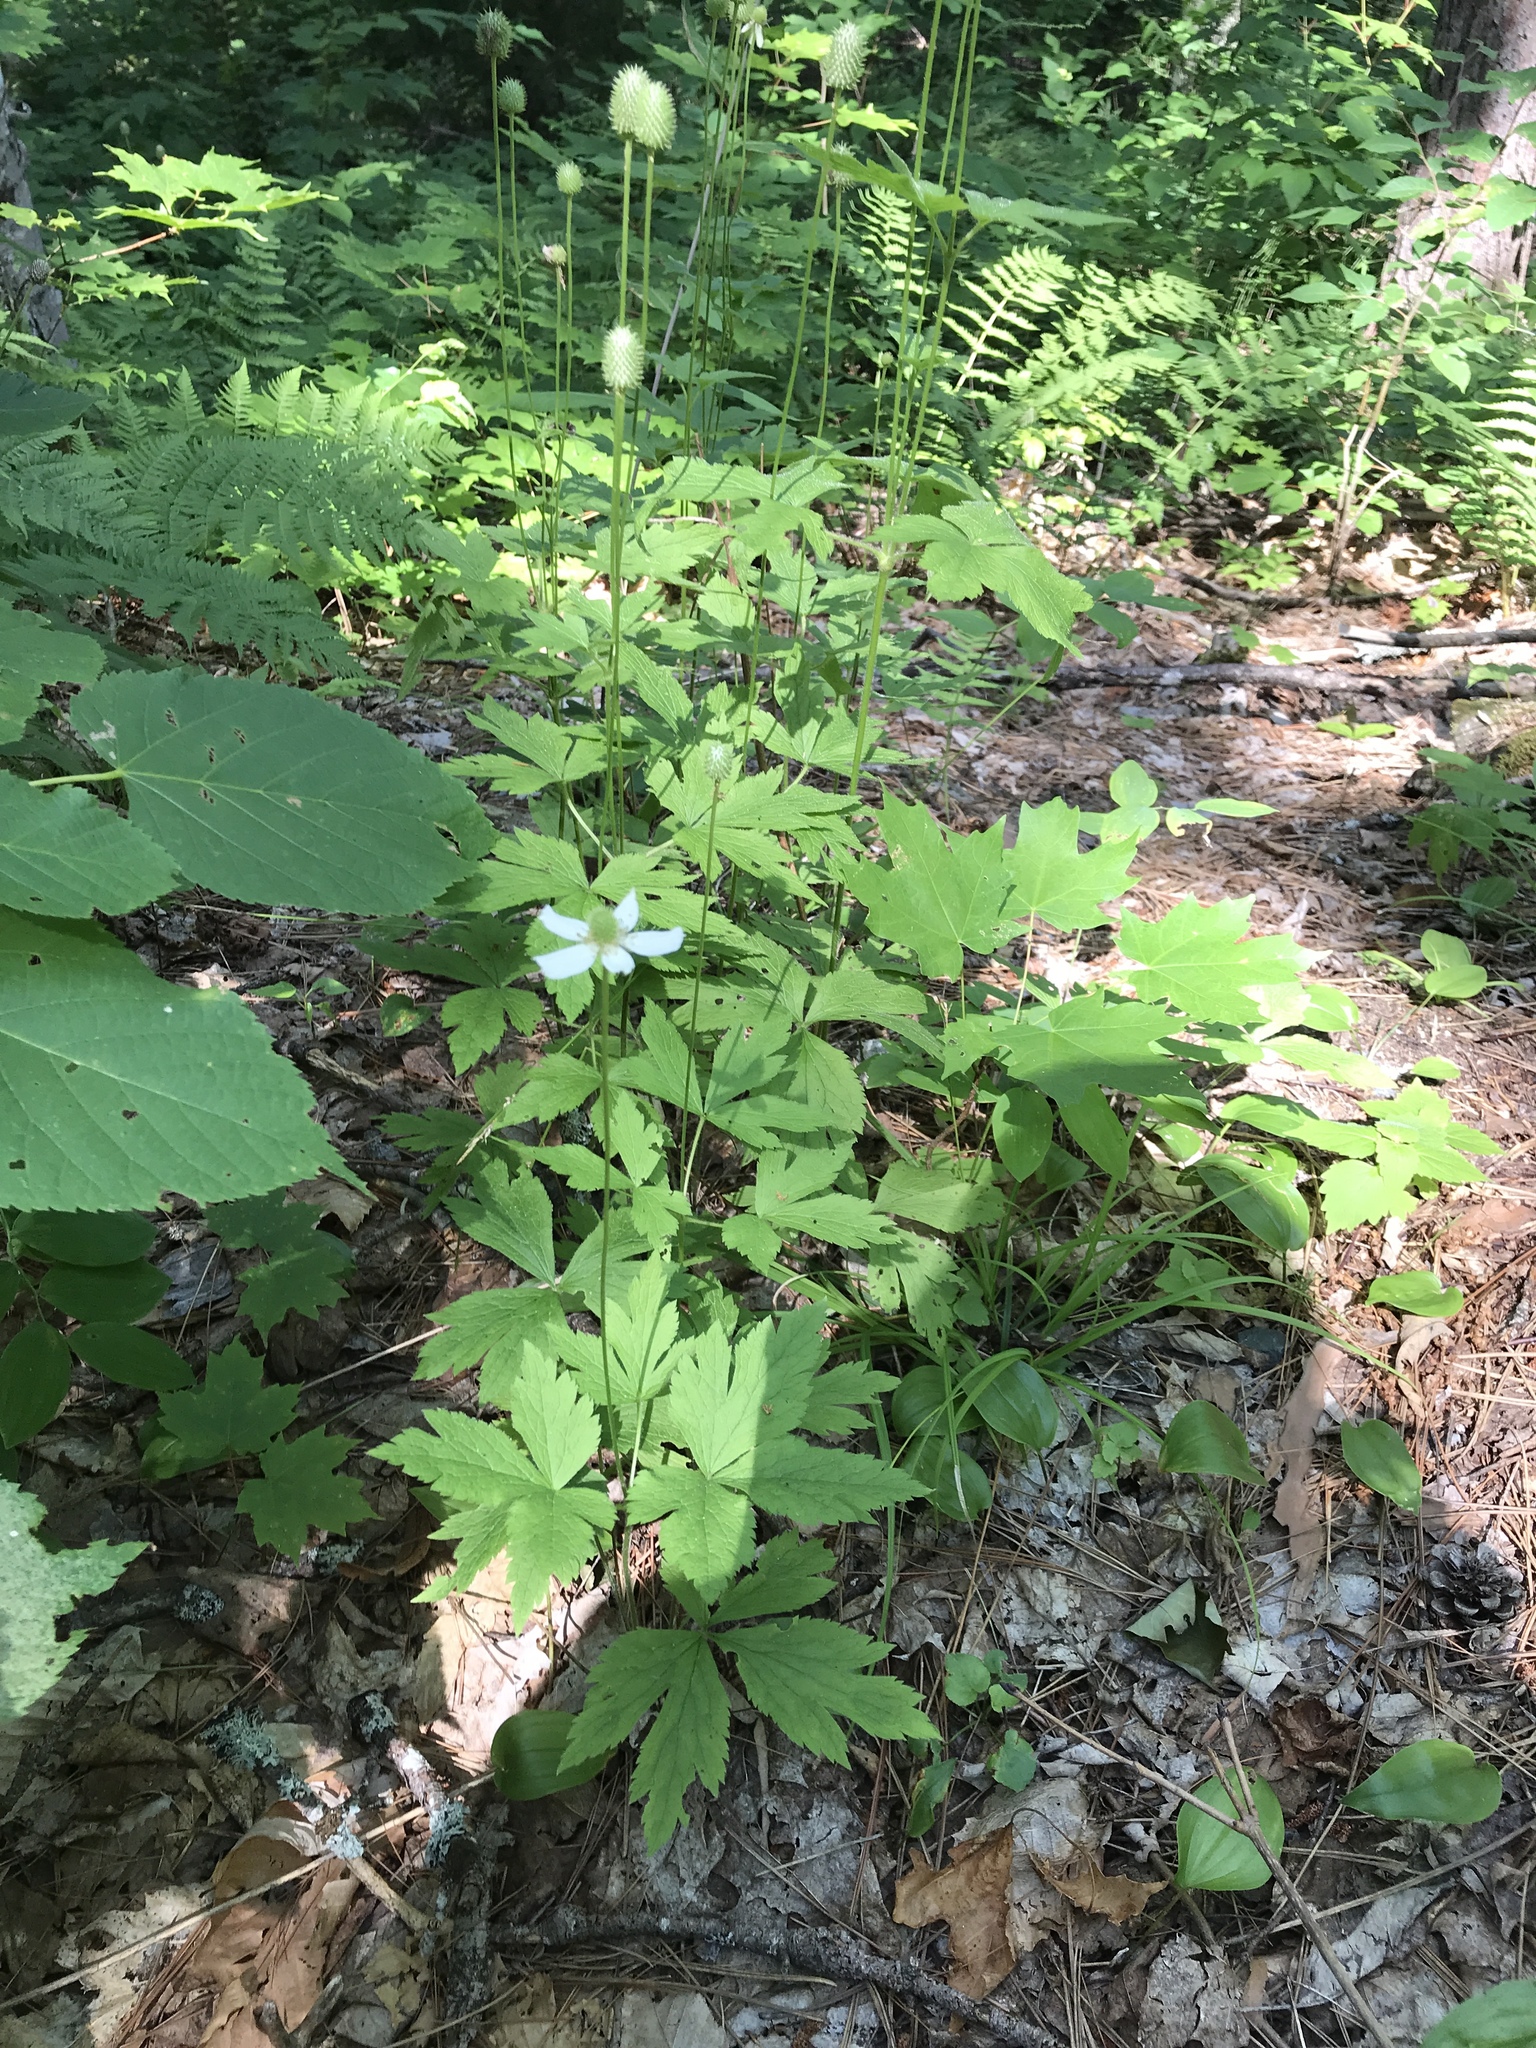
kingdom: Plantae
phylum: Tracheophyta
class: Magnoliopsida
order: Ranunculales
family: Ranunculaceae
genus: Anemone
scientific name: Anemone virginiana
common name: Tall anemone
